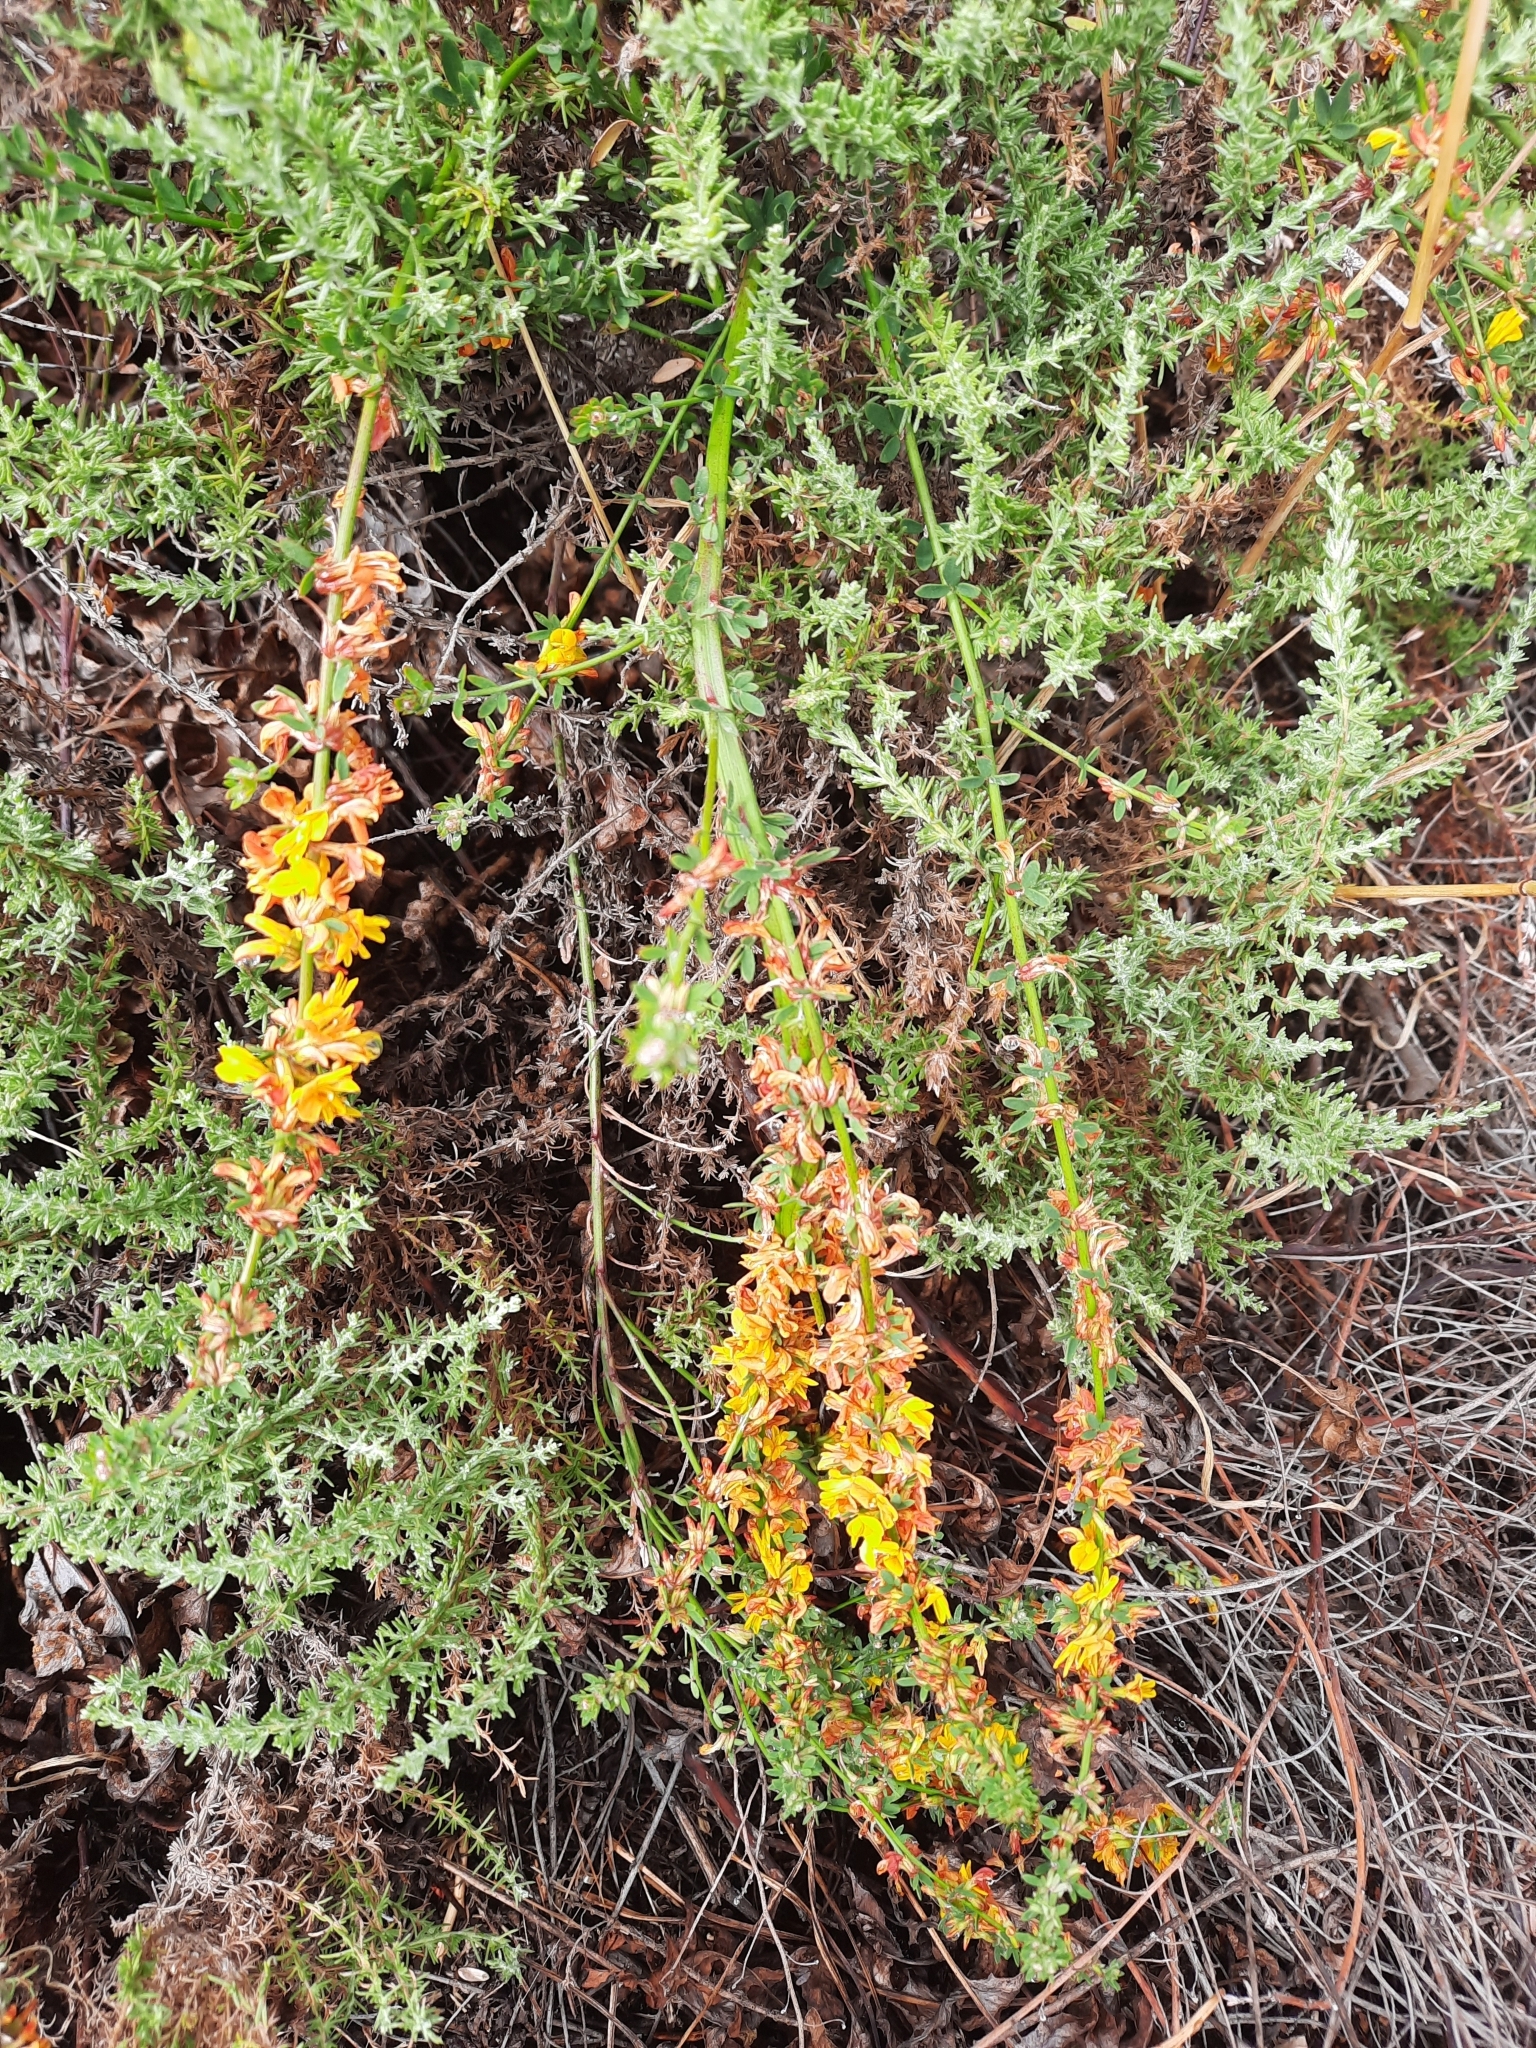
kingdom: Plantae
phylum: Tracheophyta
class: Magnoliopsida
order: Fabales
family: Fabaceae
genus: Acmispon
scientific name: Acmispon glaber
